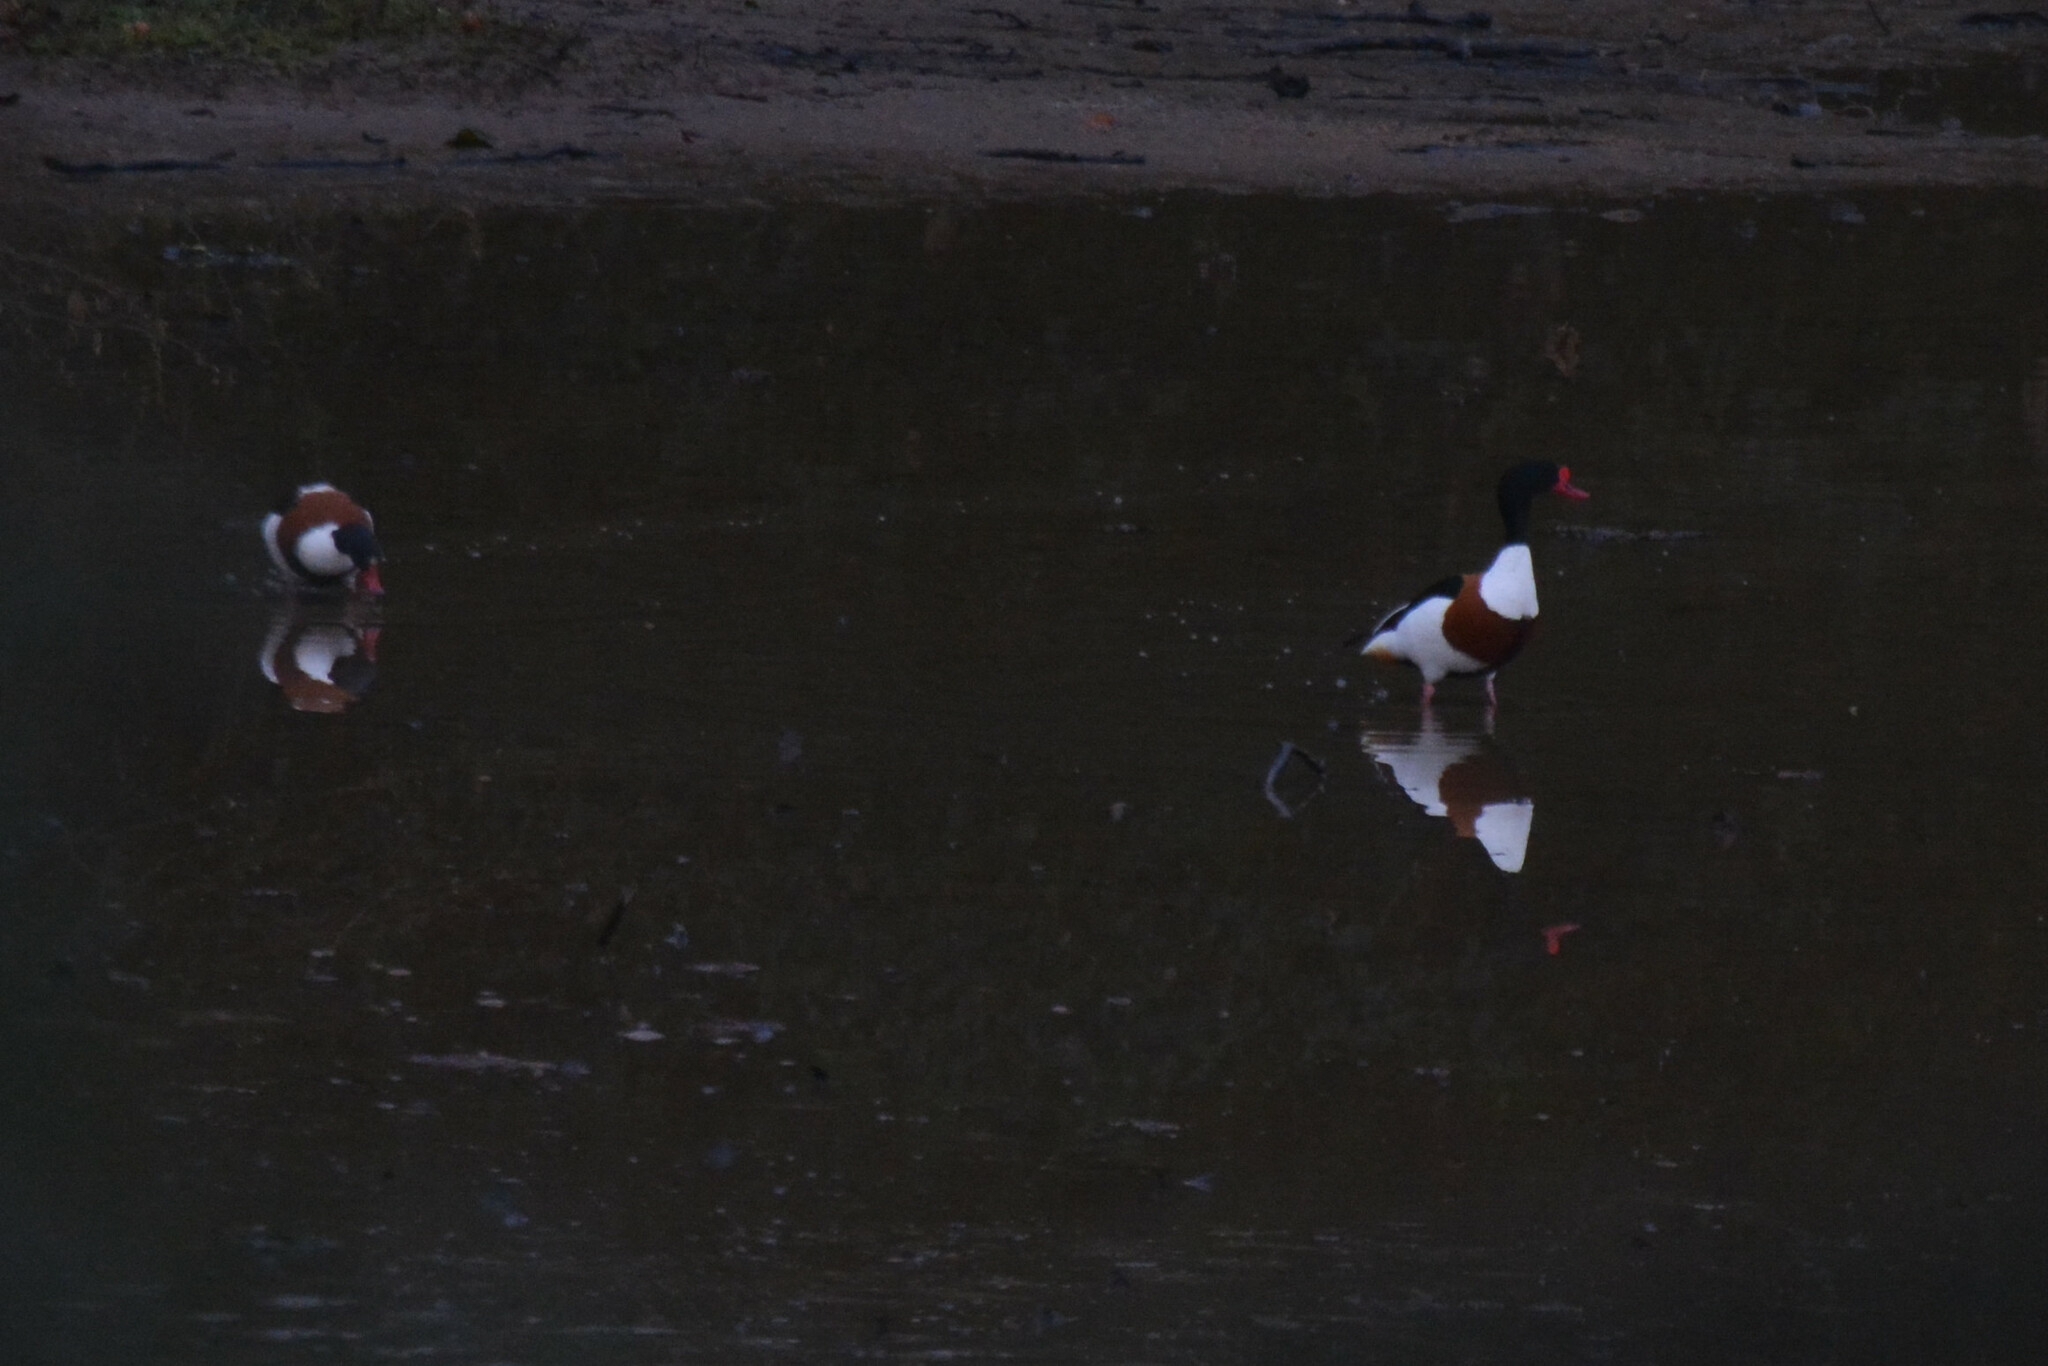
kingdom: Animalia
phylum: Chordata
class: Aves
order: Anseriformes
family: Anatidae
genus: Tadorna
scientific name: Tadorna tadorna
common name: Common shelduck
